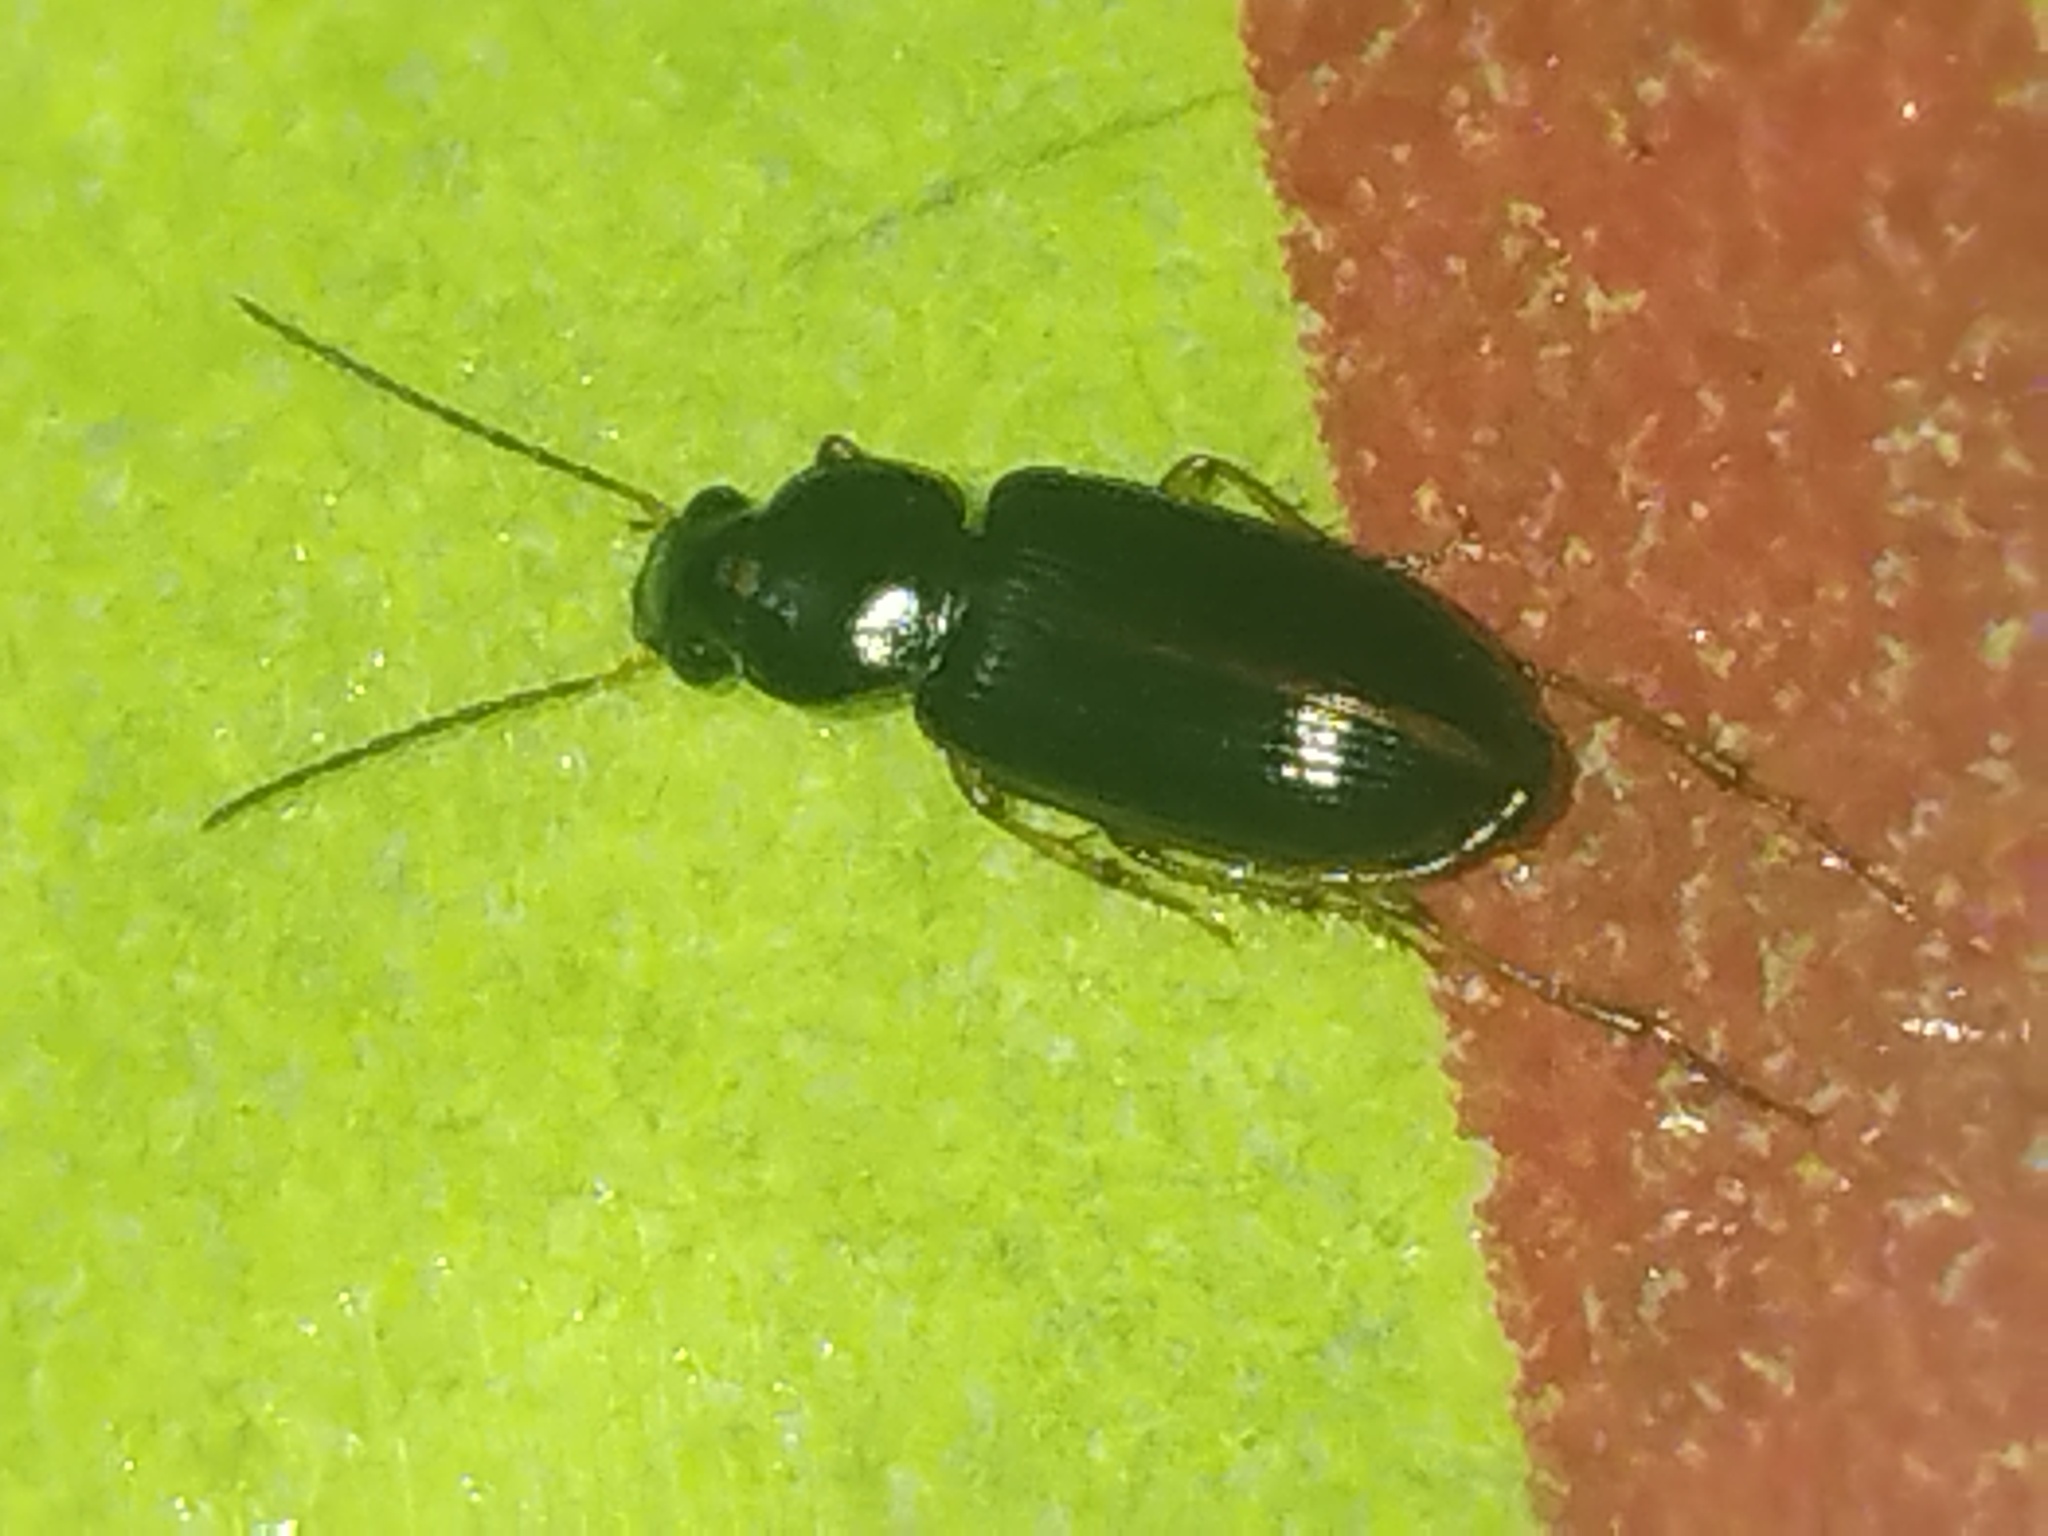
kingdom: Animalia
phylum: Arthropoda
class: Insecta
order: Coleoptera
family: Carabidae
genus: Stenolophus
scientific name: Stenolophus ochropezus
